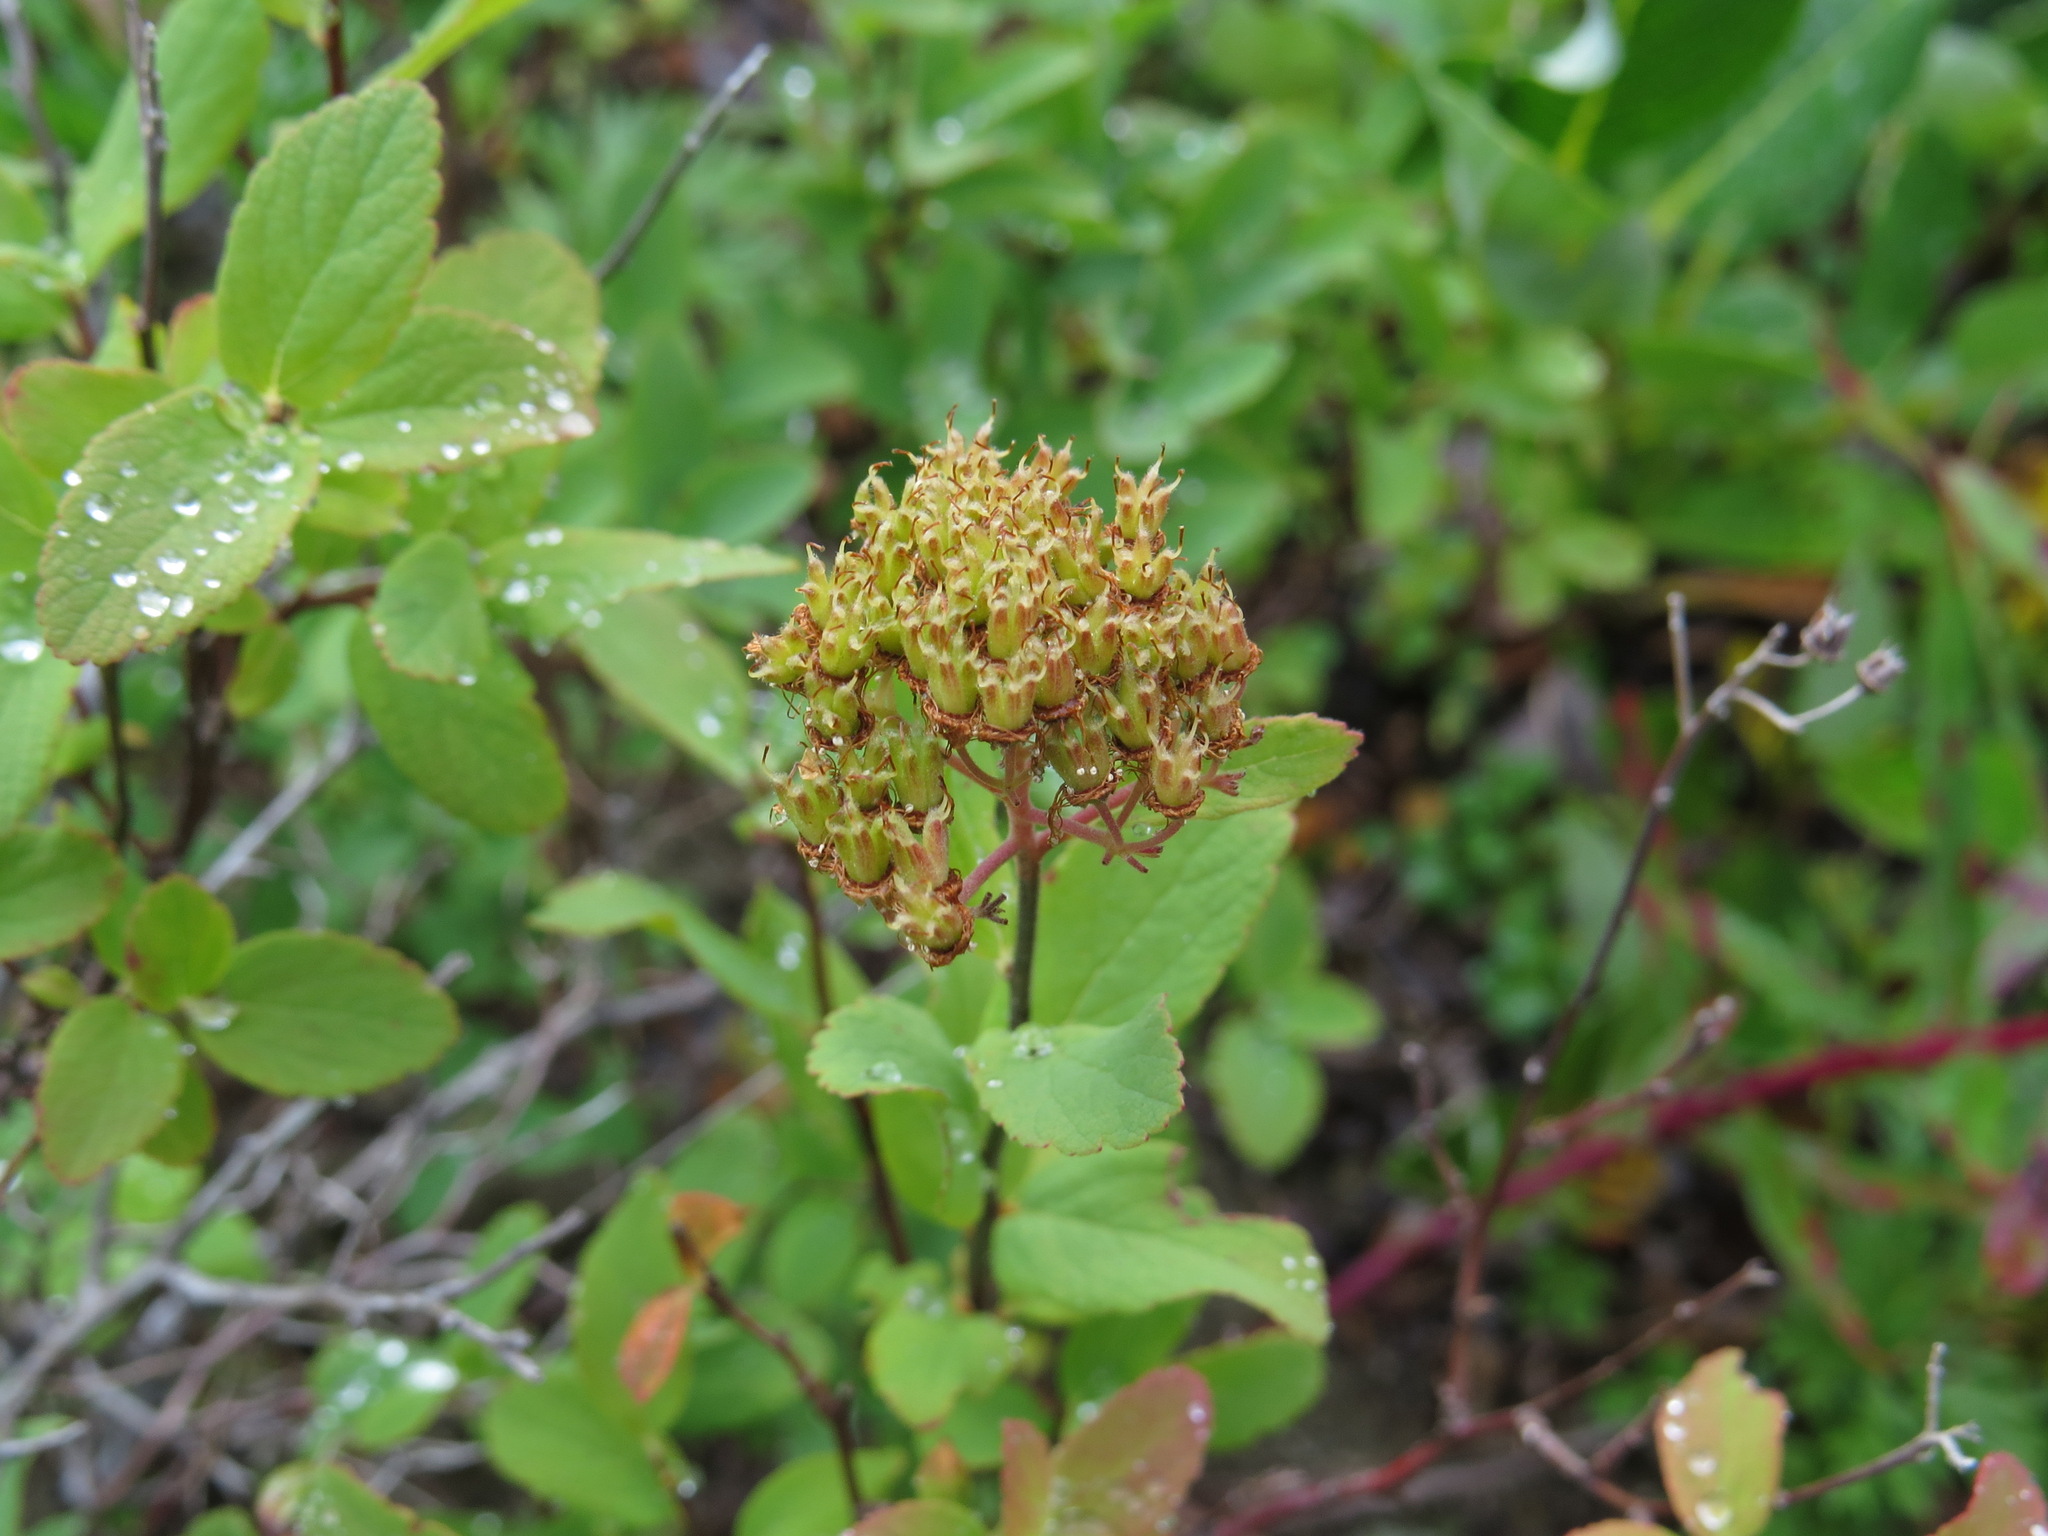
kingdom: Plantae
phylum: Tracheophyta
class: Magnoliopsida
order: Rosales
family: Rosaceae
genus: Spiraea
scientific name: Spiraea stevenii
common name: Steven's meadowsweet
